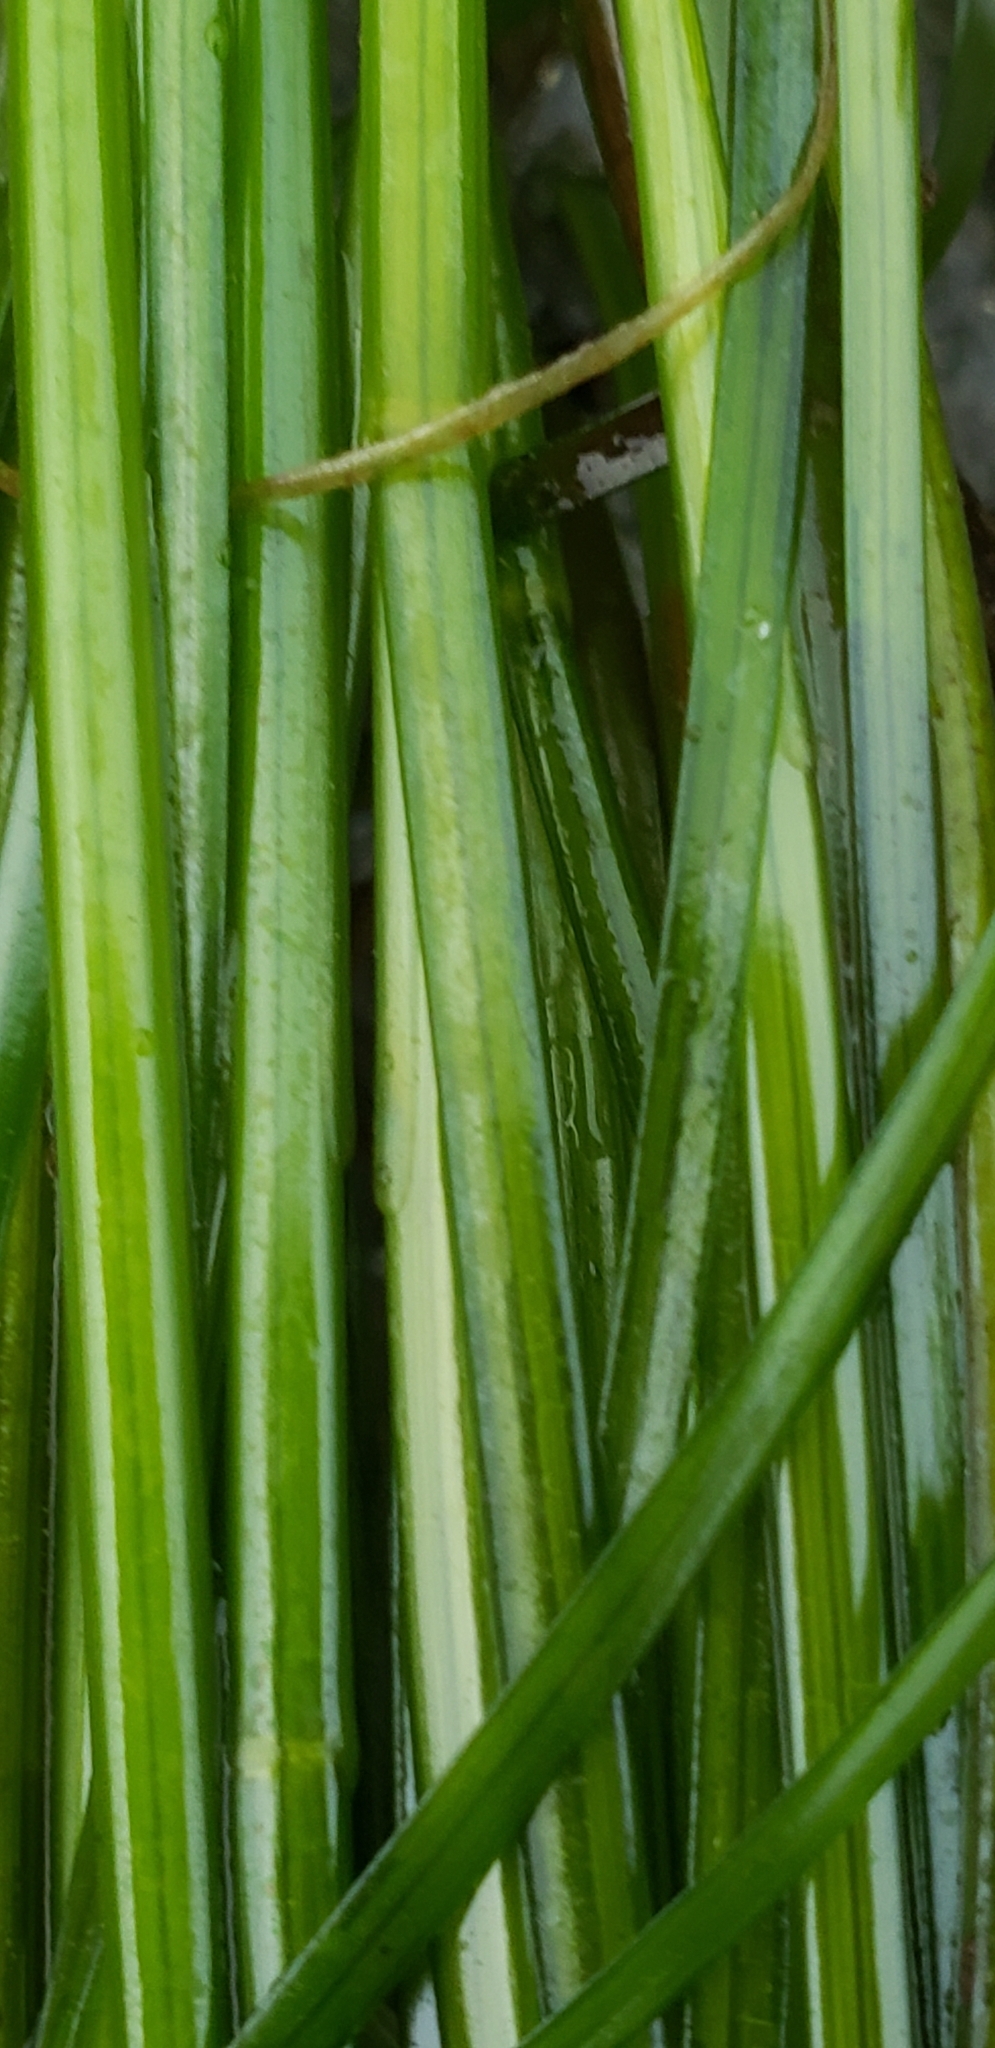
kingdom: Plantae
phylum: Tracheophyta
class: Liliopsida
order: Alismatales
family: Zosteraceae
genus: Phyllospadix
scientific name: Phyllospadix torreyi
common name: Surfgrass
